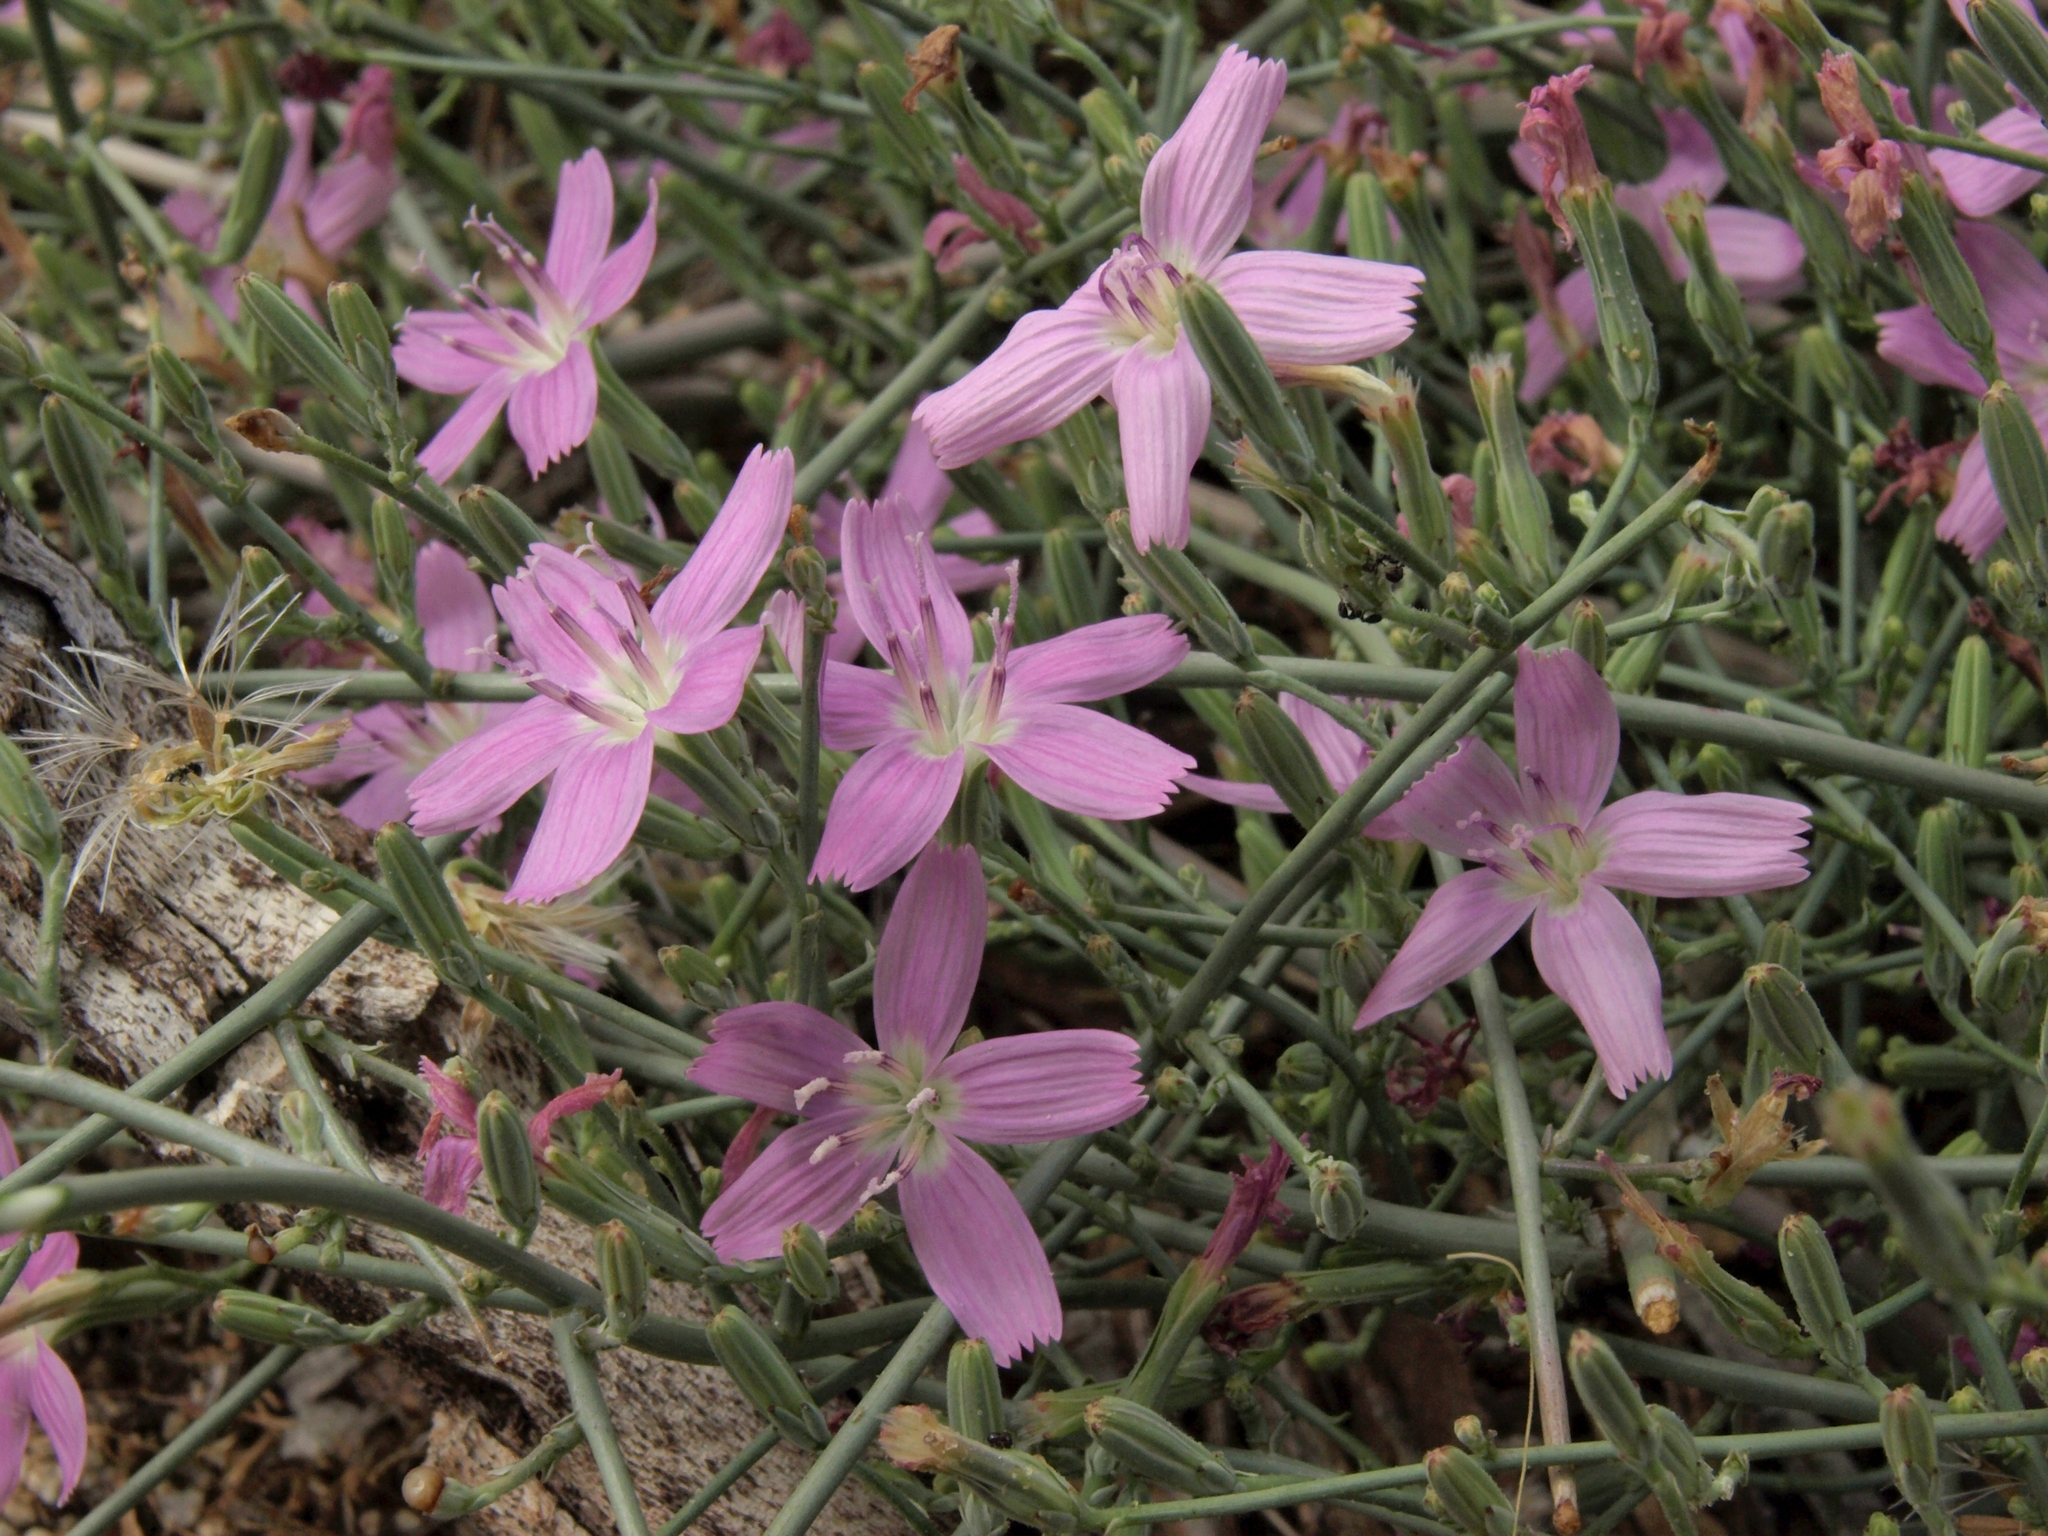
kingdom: Plantae
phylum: Tracheophyta
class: Magnoliopsida
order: Asterales
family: Asteraceae
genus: Stephanomeria
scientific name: Stephanomeria exigua
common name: Small wirelettuce
